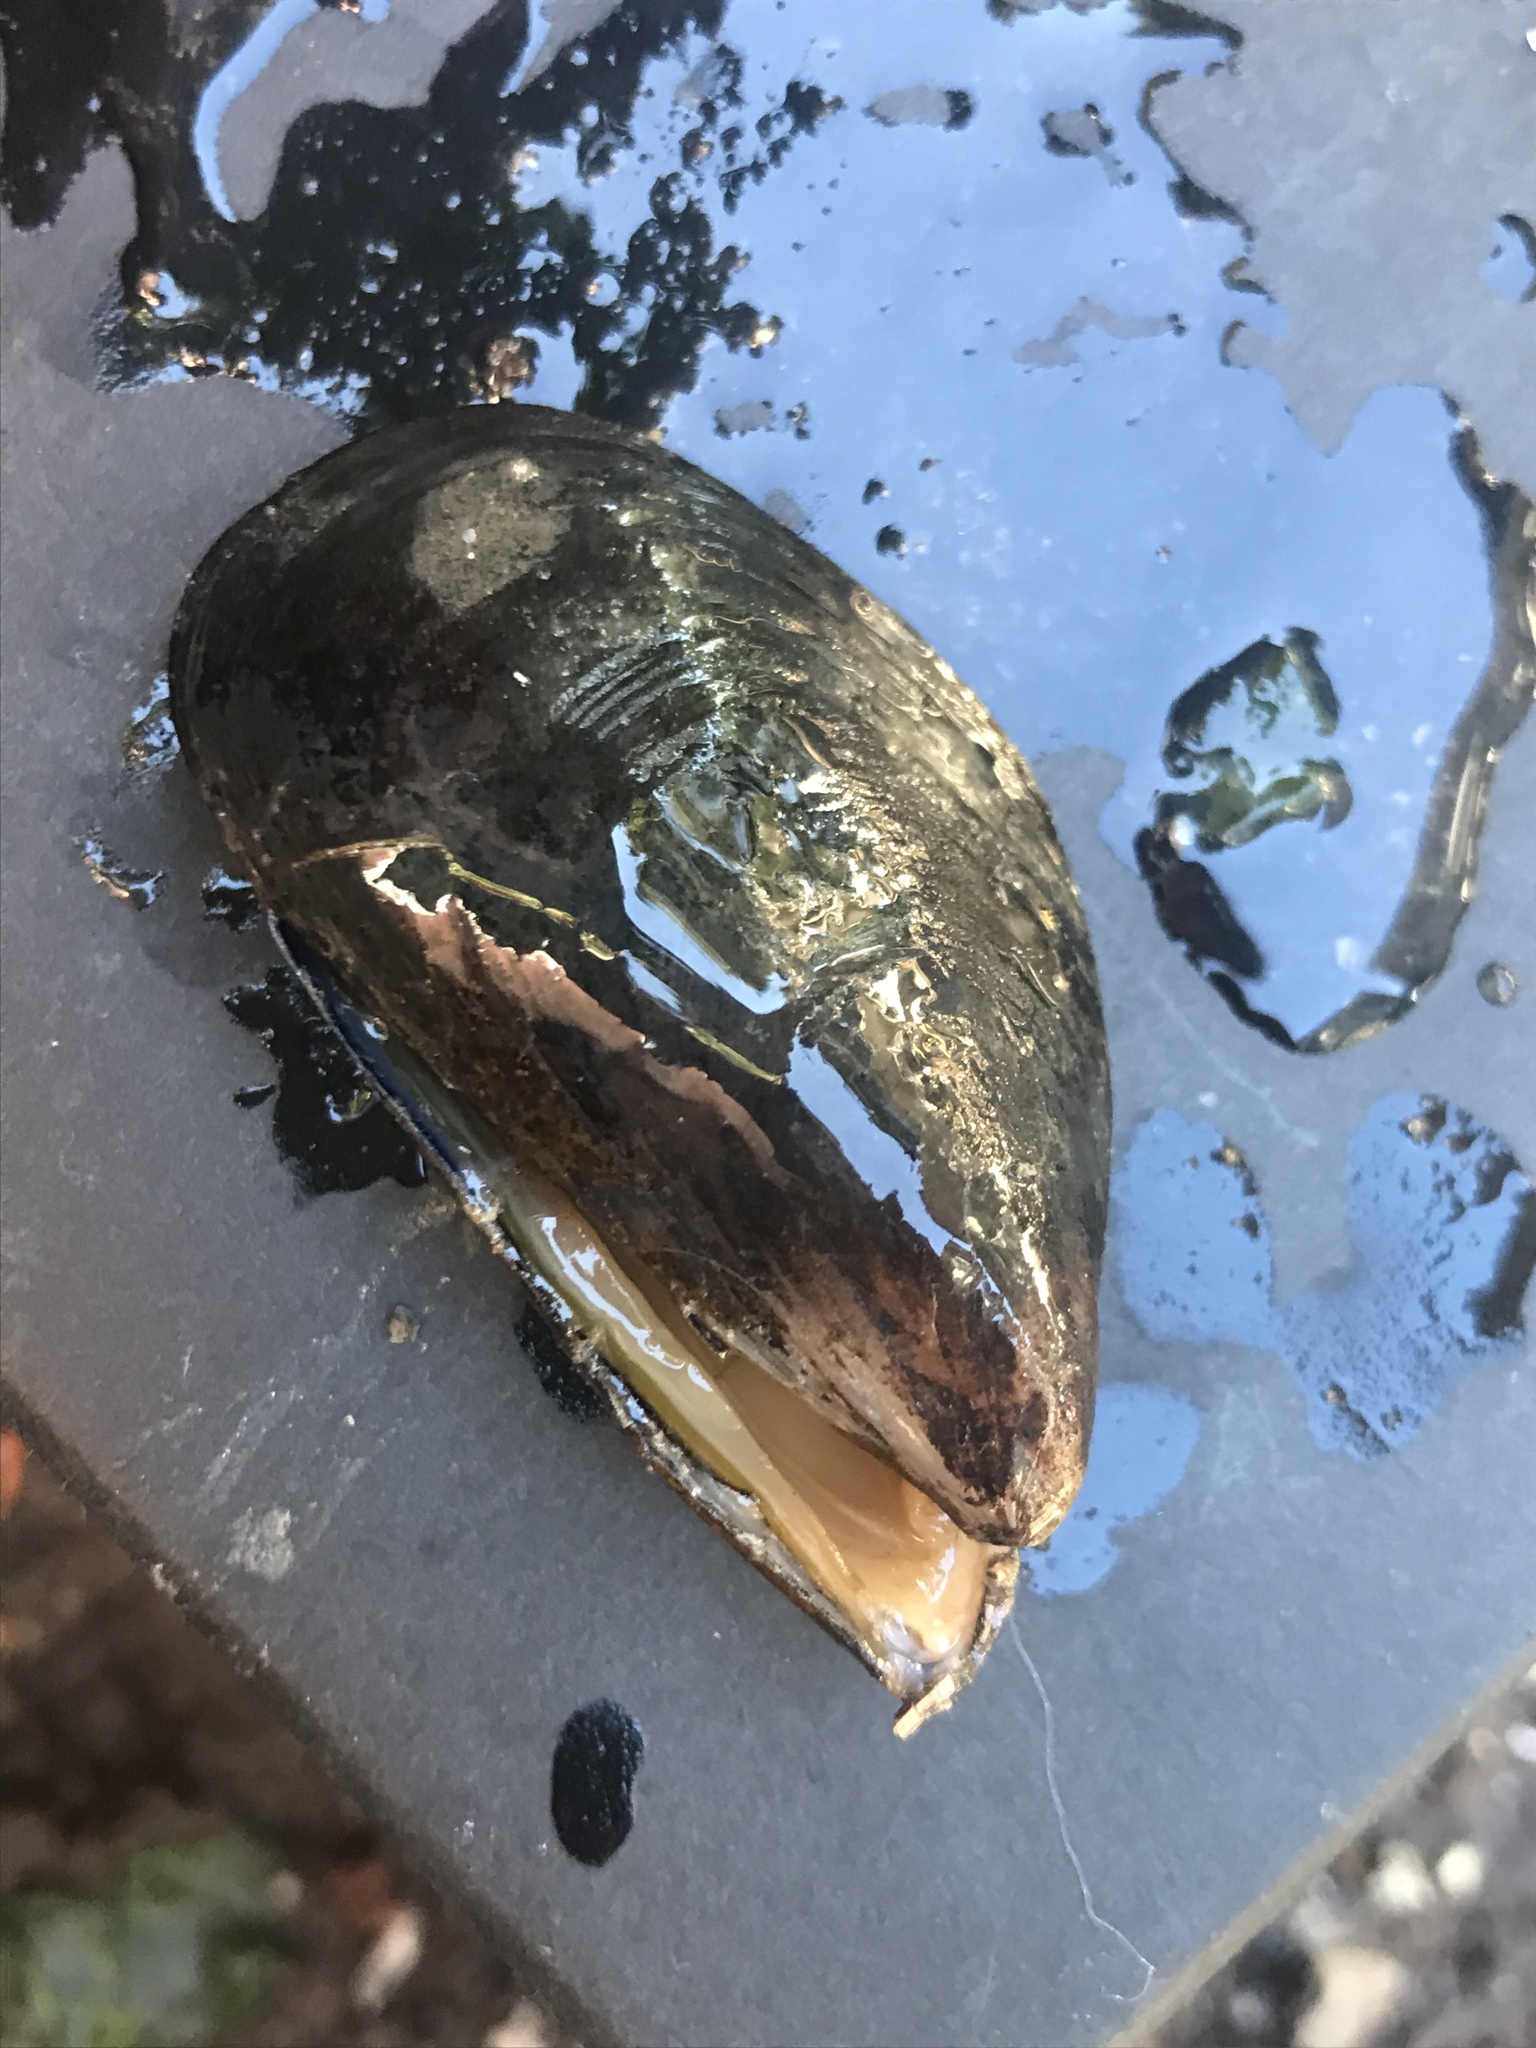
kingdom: Animalia
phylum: Mollusca
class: Bivalvia
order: Mytilida
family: Mytilidae
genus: Mytilus
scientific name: Mytilus
